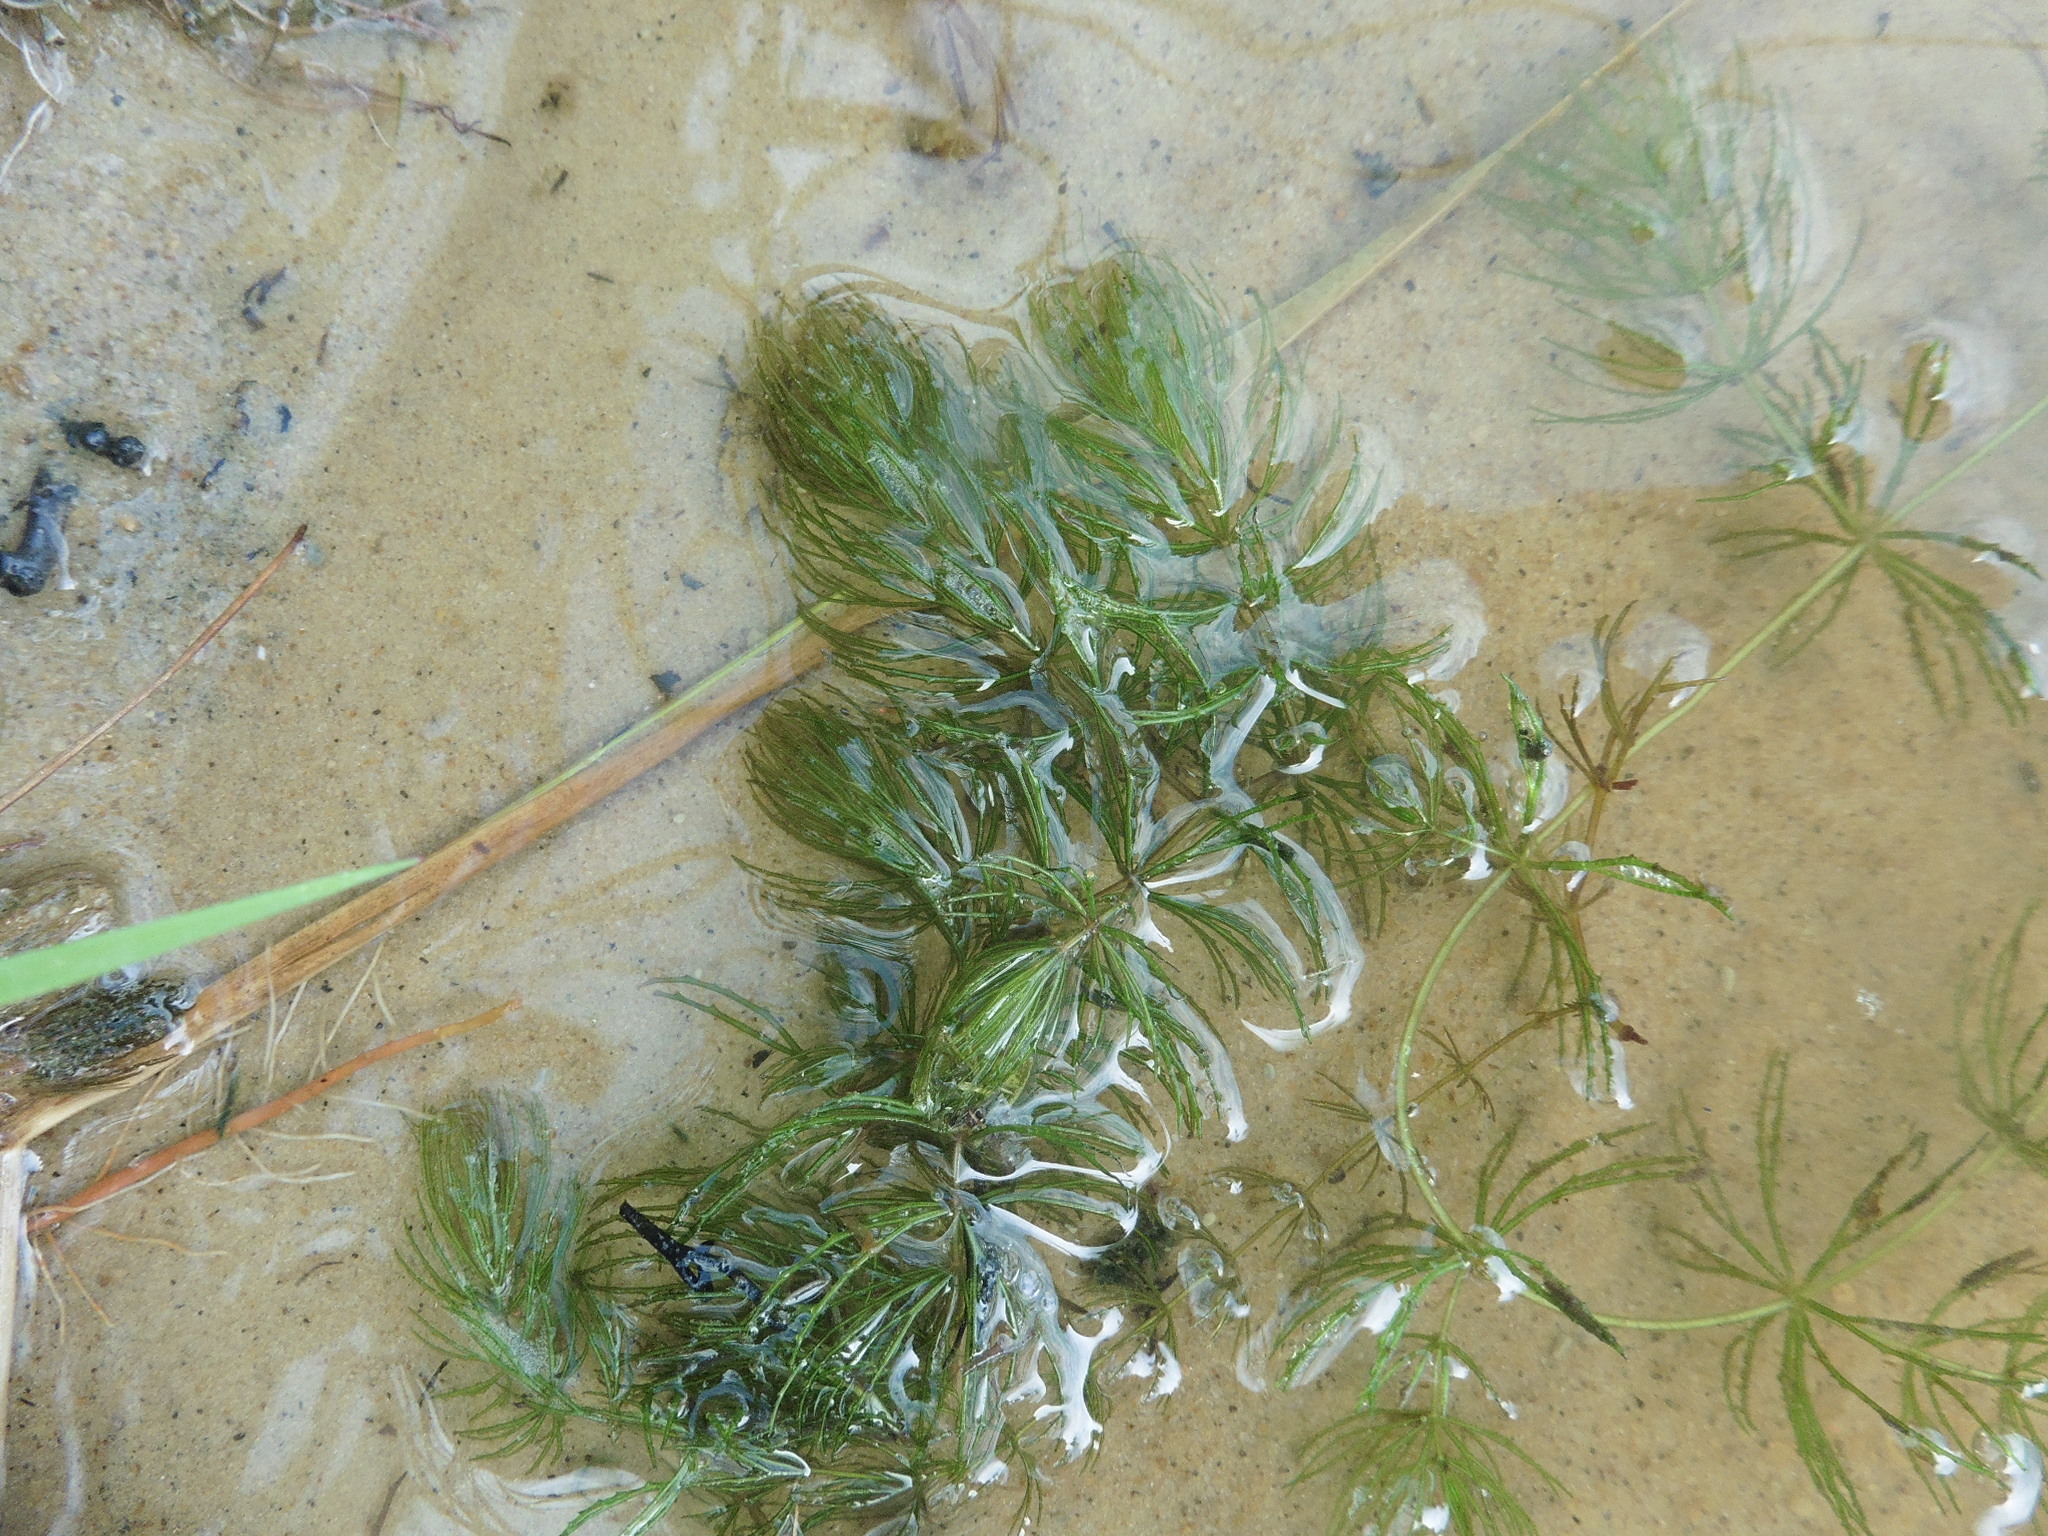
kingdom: Plantae
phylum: Tracheophyta
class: Magnoliopsida
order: Ceratophyllales
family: Ceratophyllaceae
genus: Ceratophyllum
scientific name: Ceratophyllum demersum
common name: Rigid hornwort
